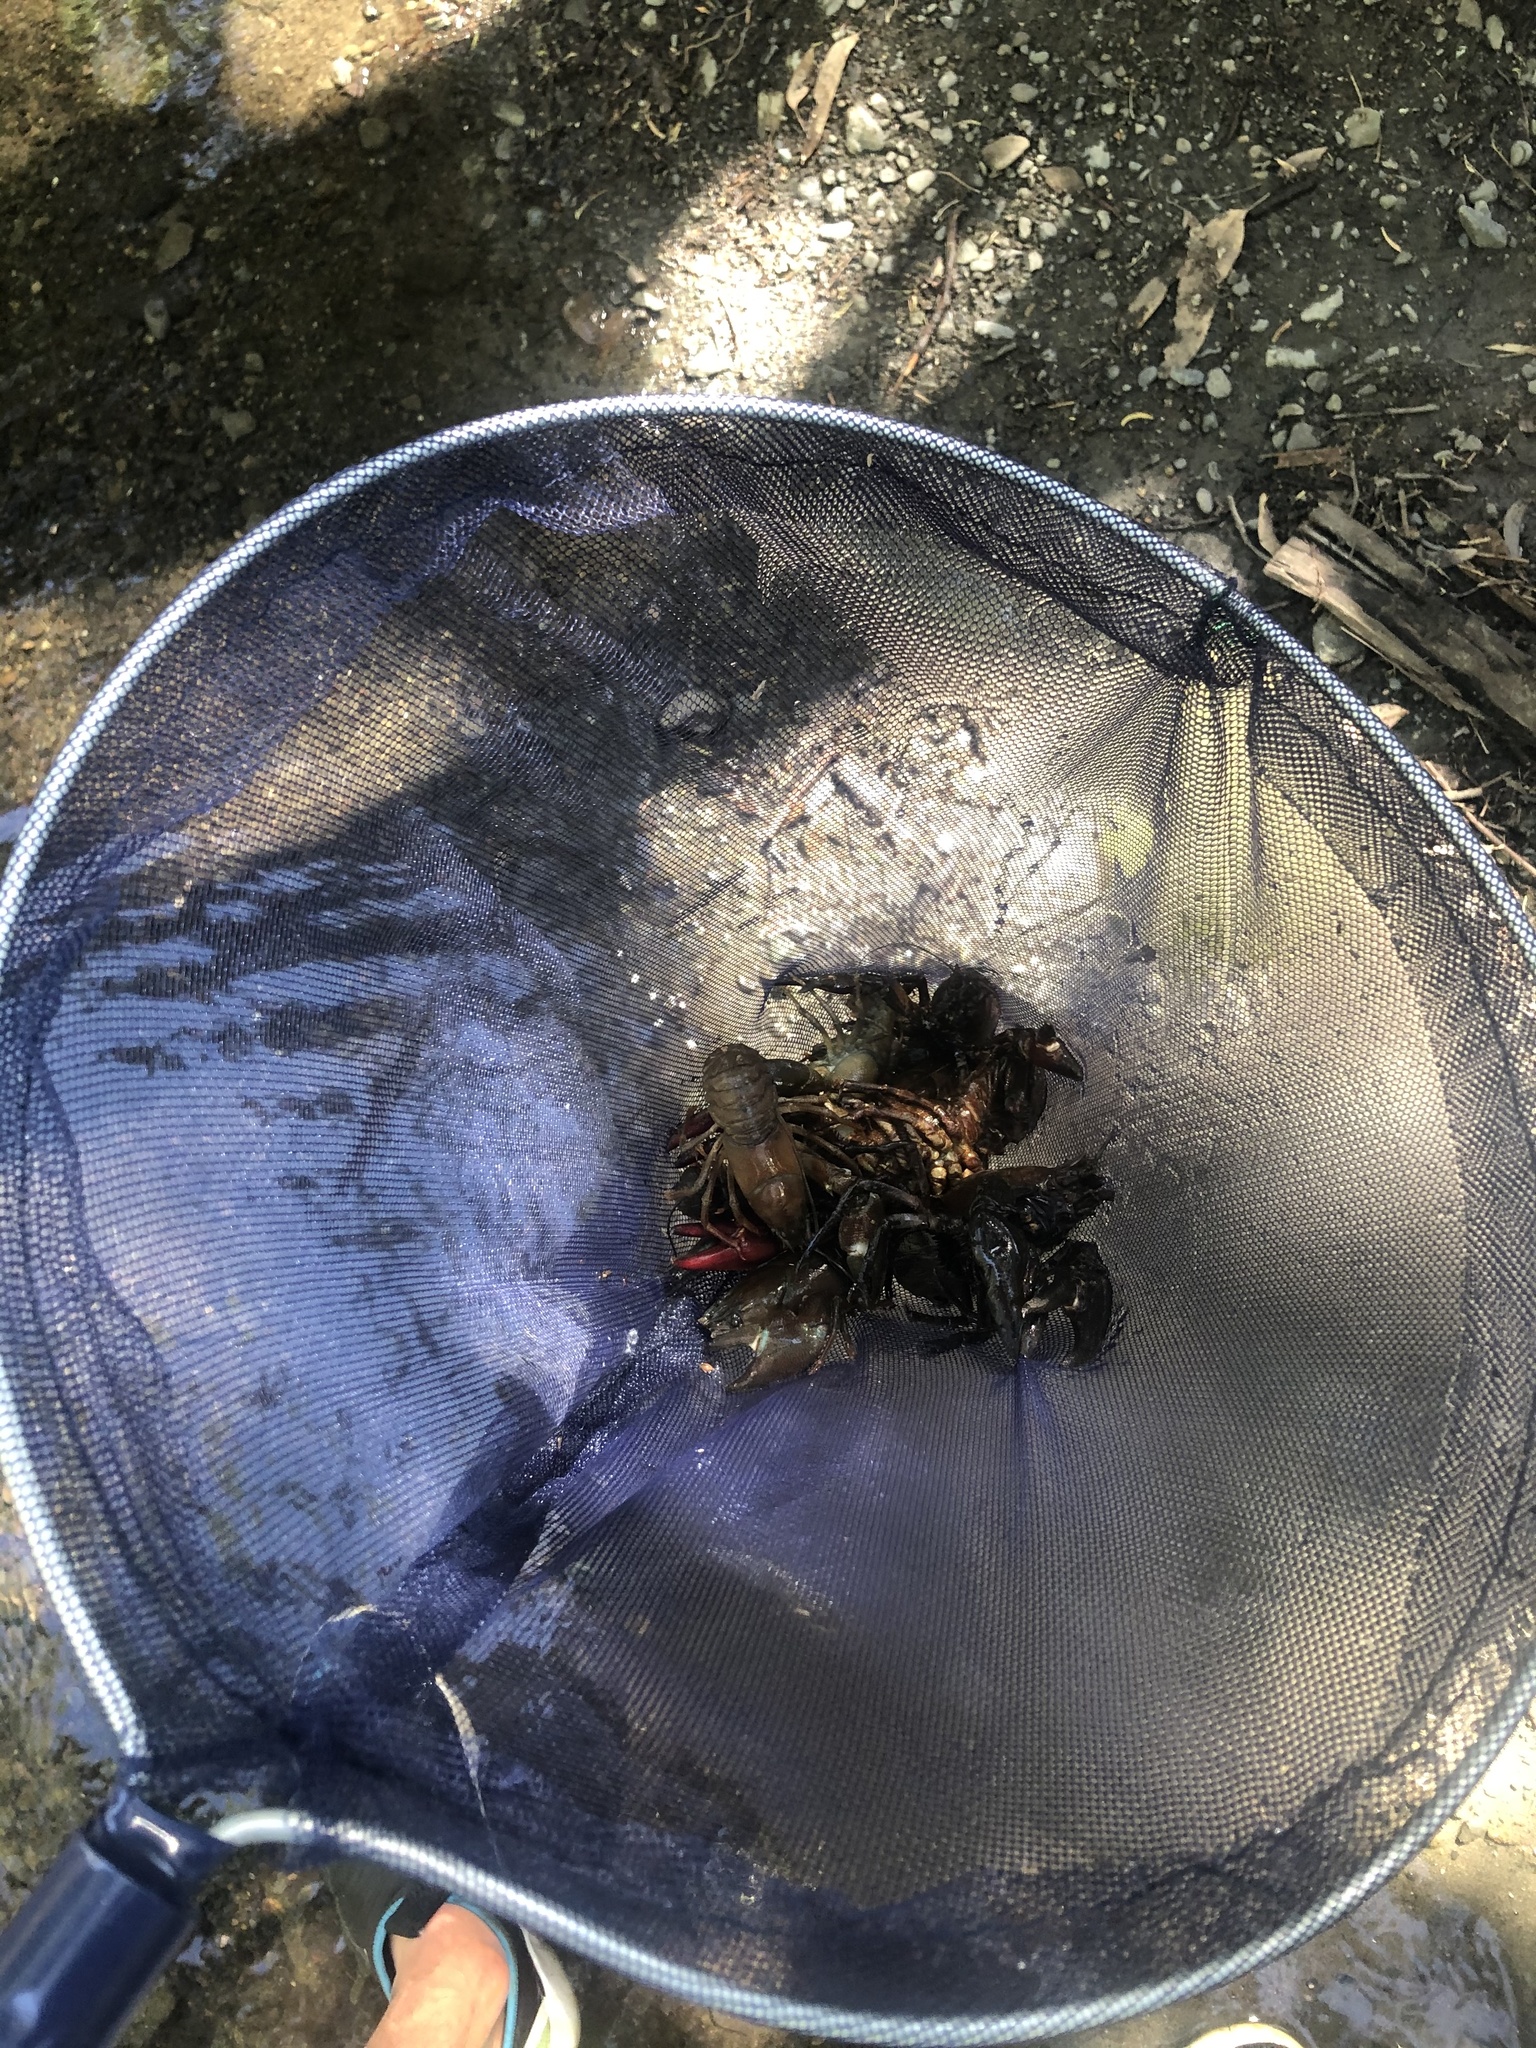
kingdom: Animalia
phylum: Arthropoda
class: Malacostraca
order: Decapoda
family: Astacidae
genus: Pacifastacus
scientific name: Pacifastacus leniusculus
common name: Signal crayfish
